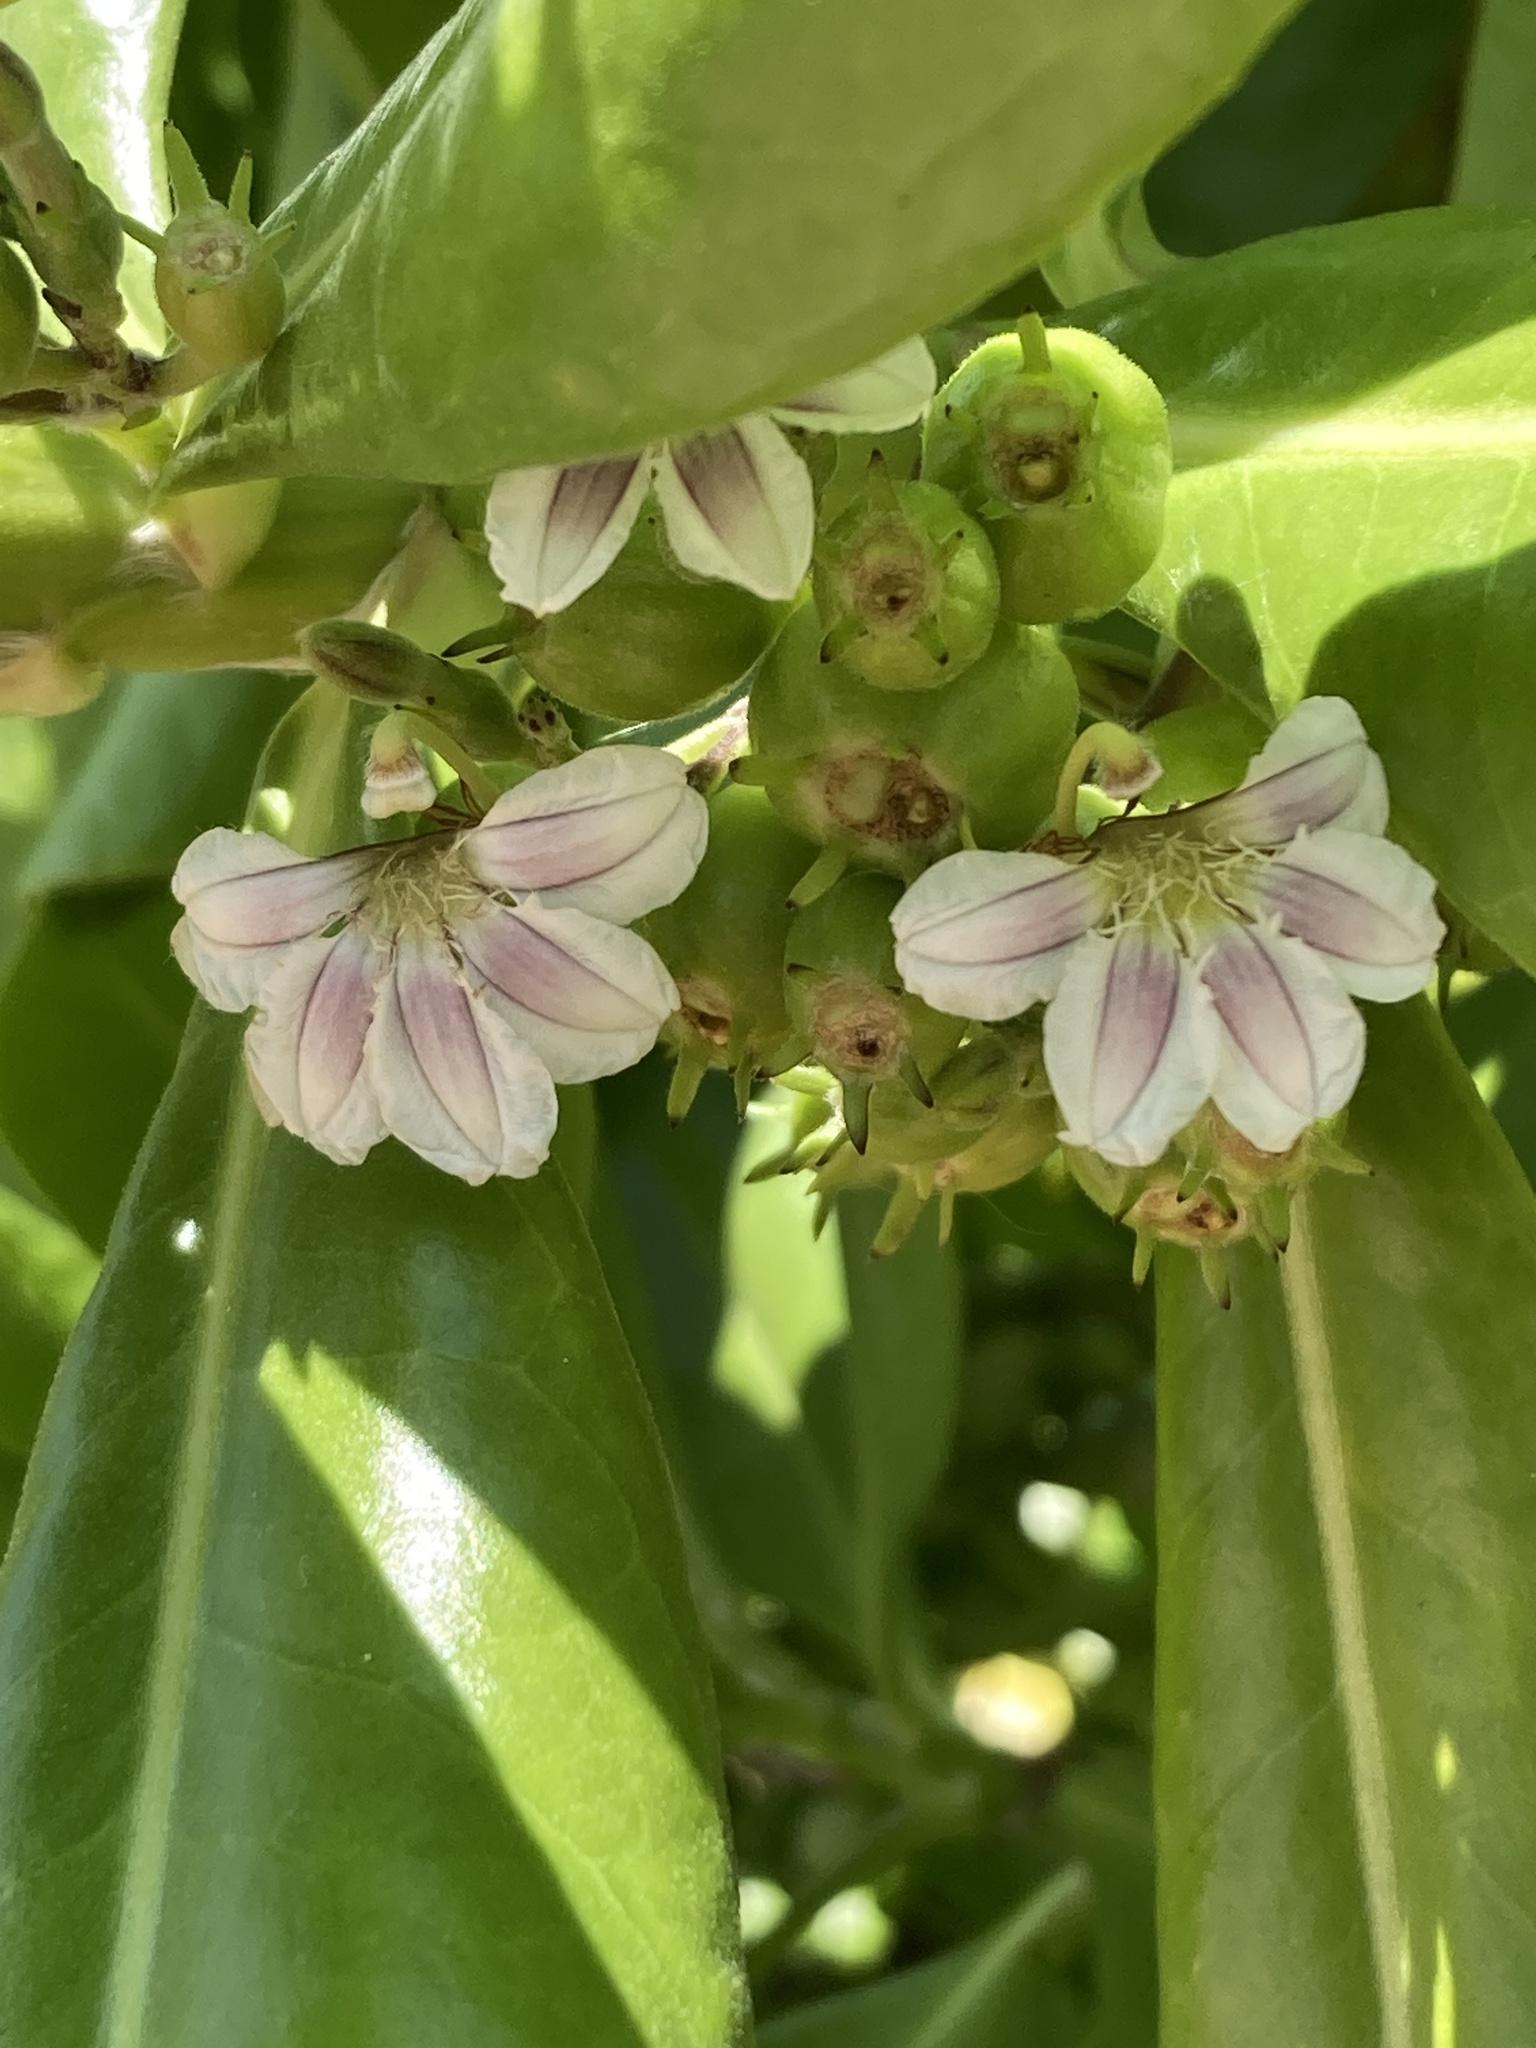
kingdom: Plantae
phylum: Tracheophyta
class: Magnoliopsida
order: Asterales
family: Goodeniaceae
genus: Scaevola
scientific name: Scaevola taccada
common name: Sea lettucetree
